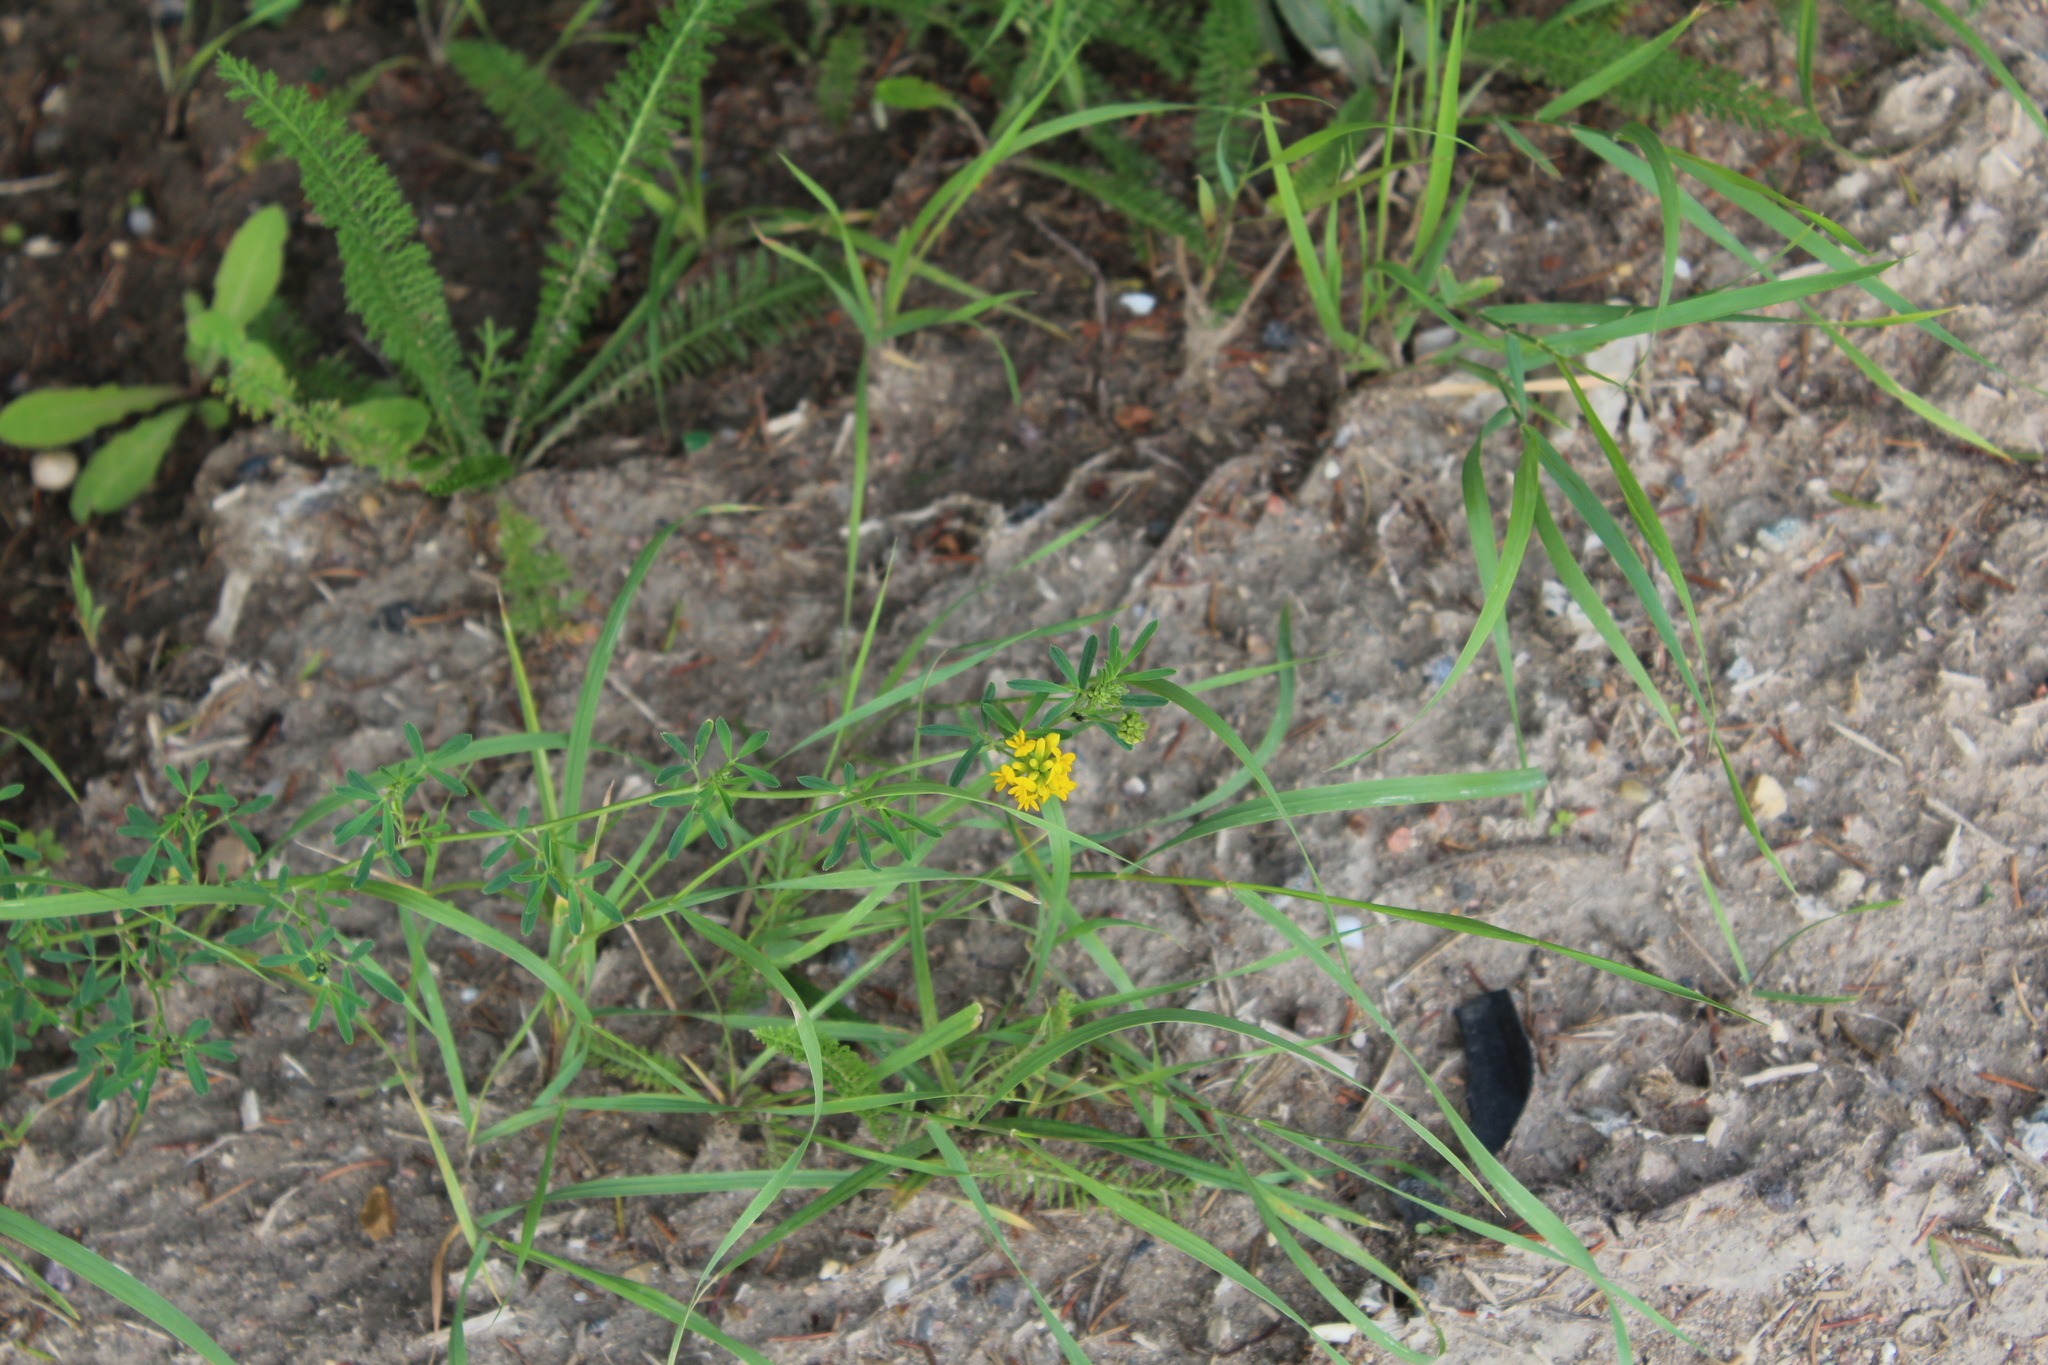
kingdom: Plantae
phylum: Tracheophyta
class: Magnoliopsida
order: Fabales
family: Fabaceae
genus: Medicago
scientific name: Medicago falcata
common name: Sickle medick
